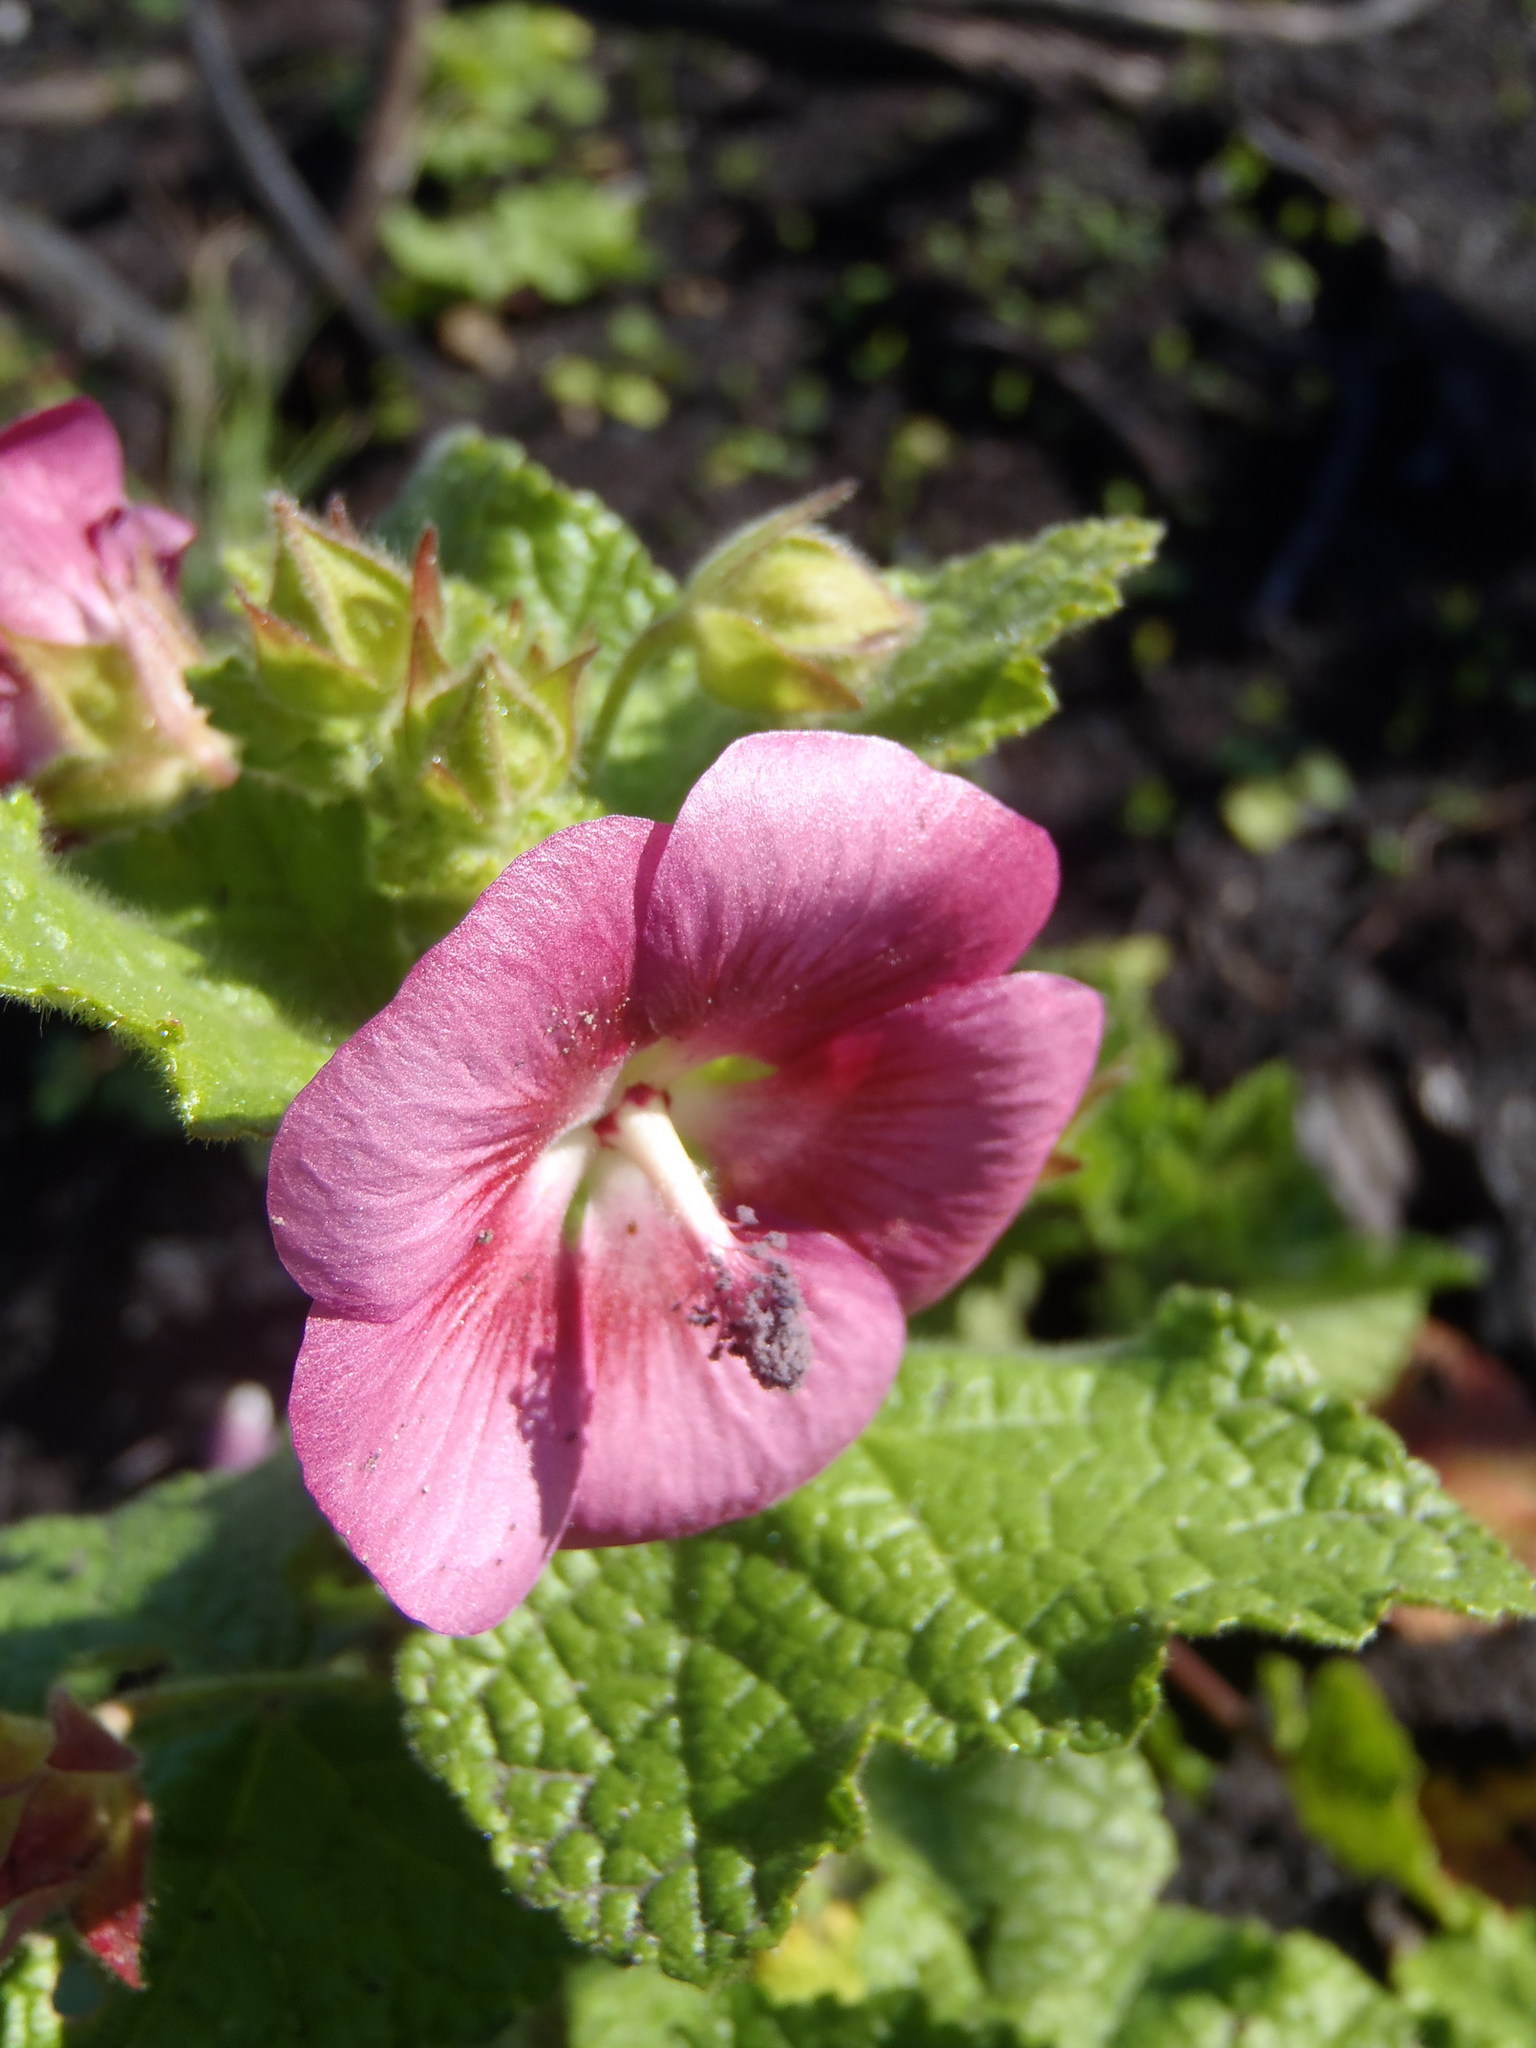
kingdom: Plantae
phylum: Tracheophyta
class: Magnoliopsida
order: Malvales
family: Malvaceae
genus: Anisodontea
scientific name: Anisodontea scabrosa
